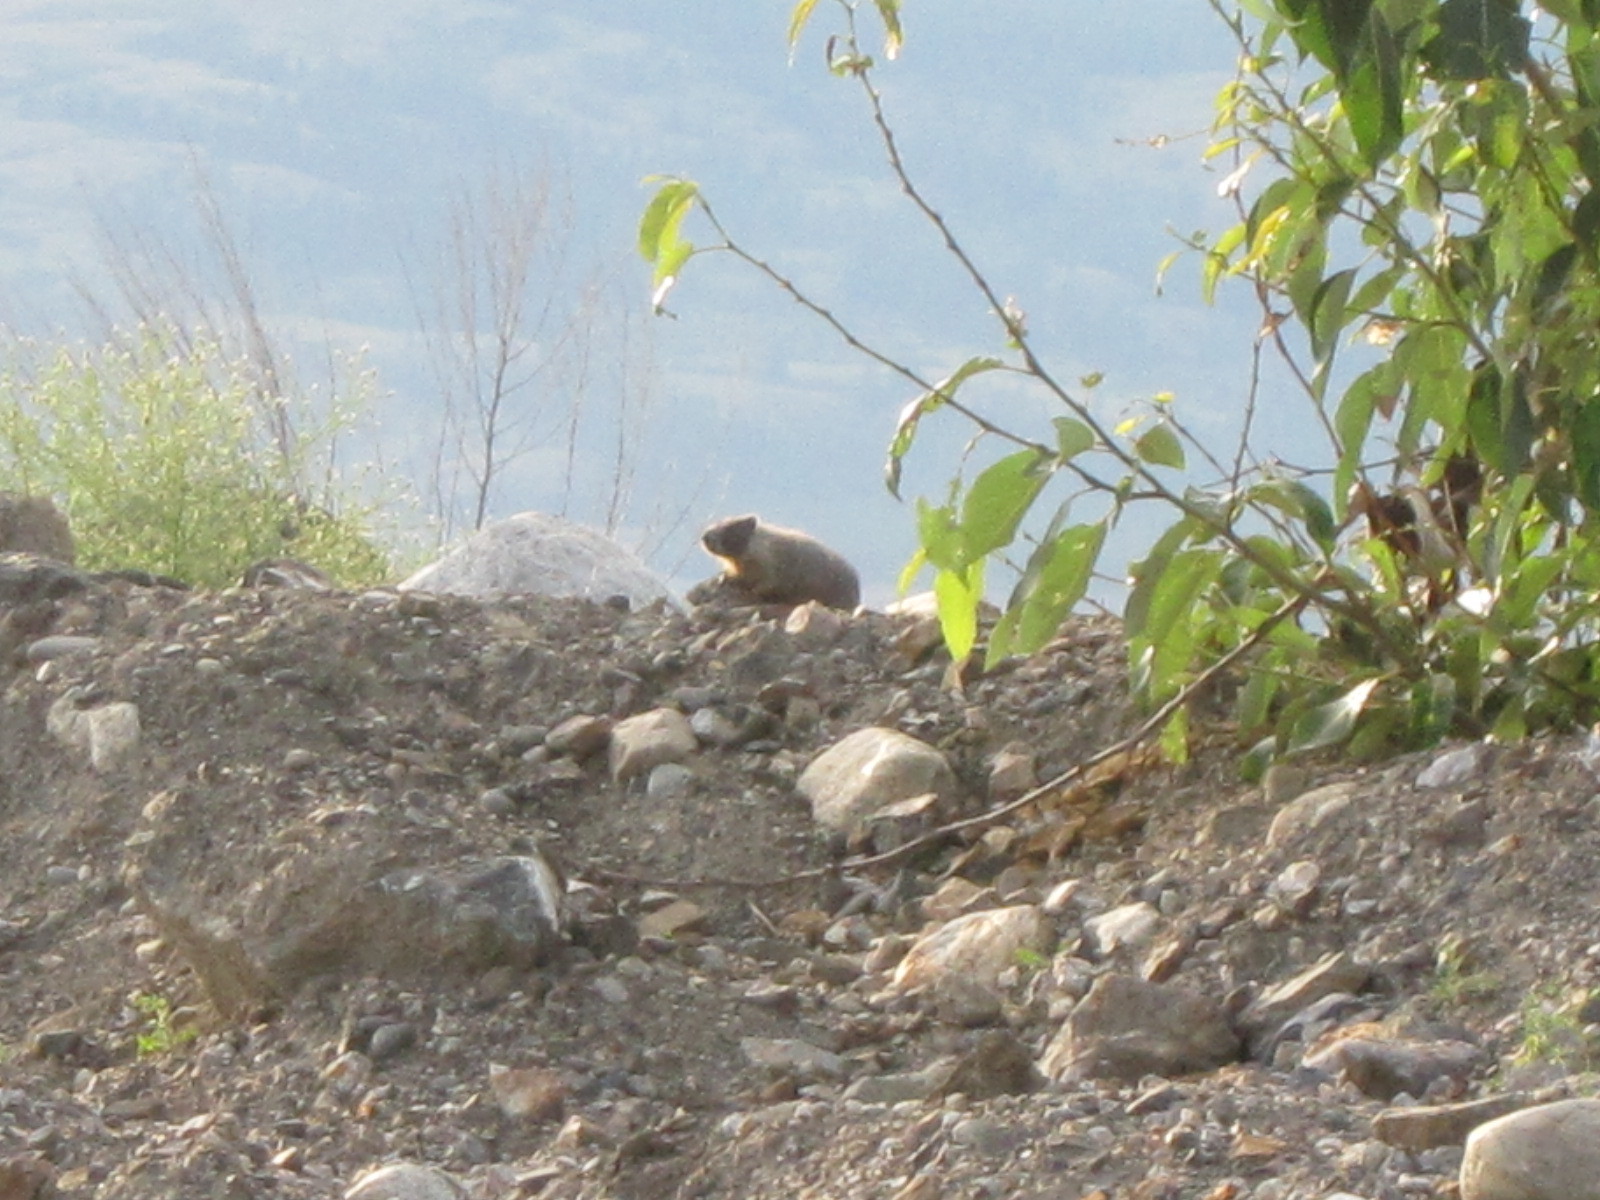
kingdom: Animalia
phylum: Chordata
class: Mammalia
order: Rodentia
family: Sciuridae
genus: Marmota
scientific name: Marmota flaviventris
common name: Yellow-bellied marmot
